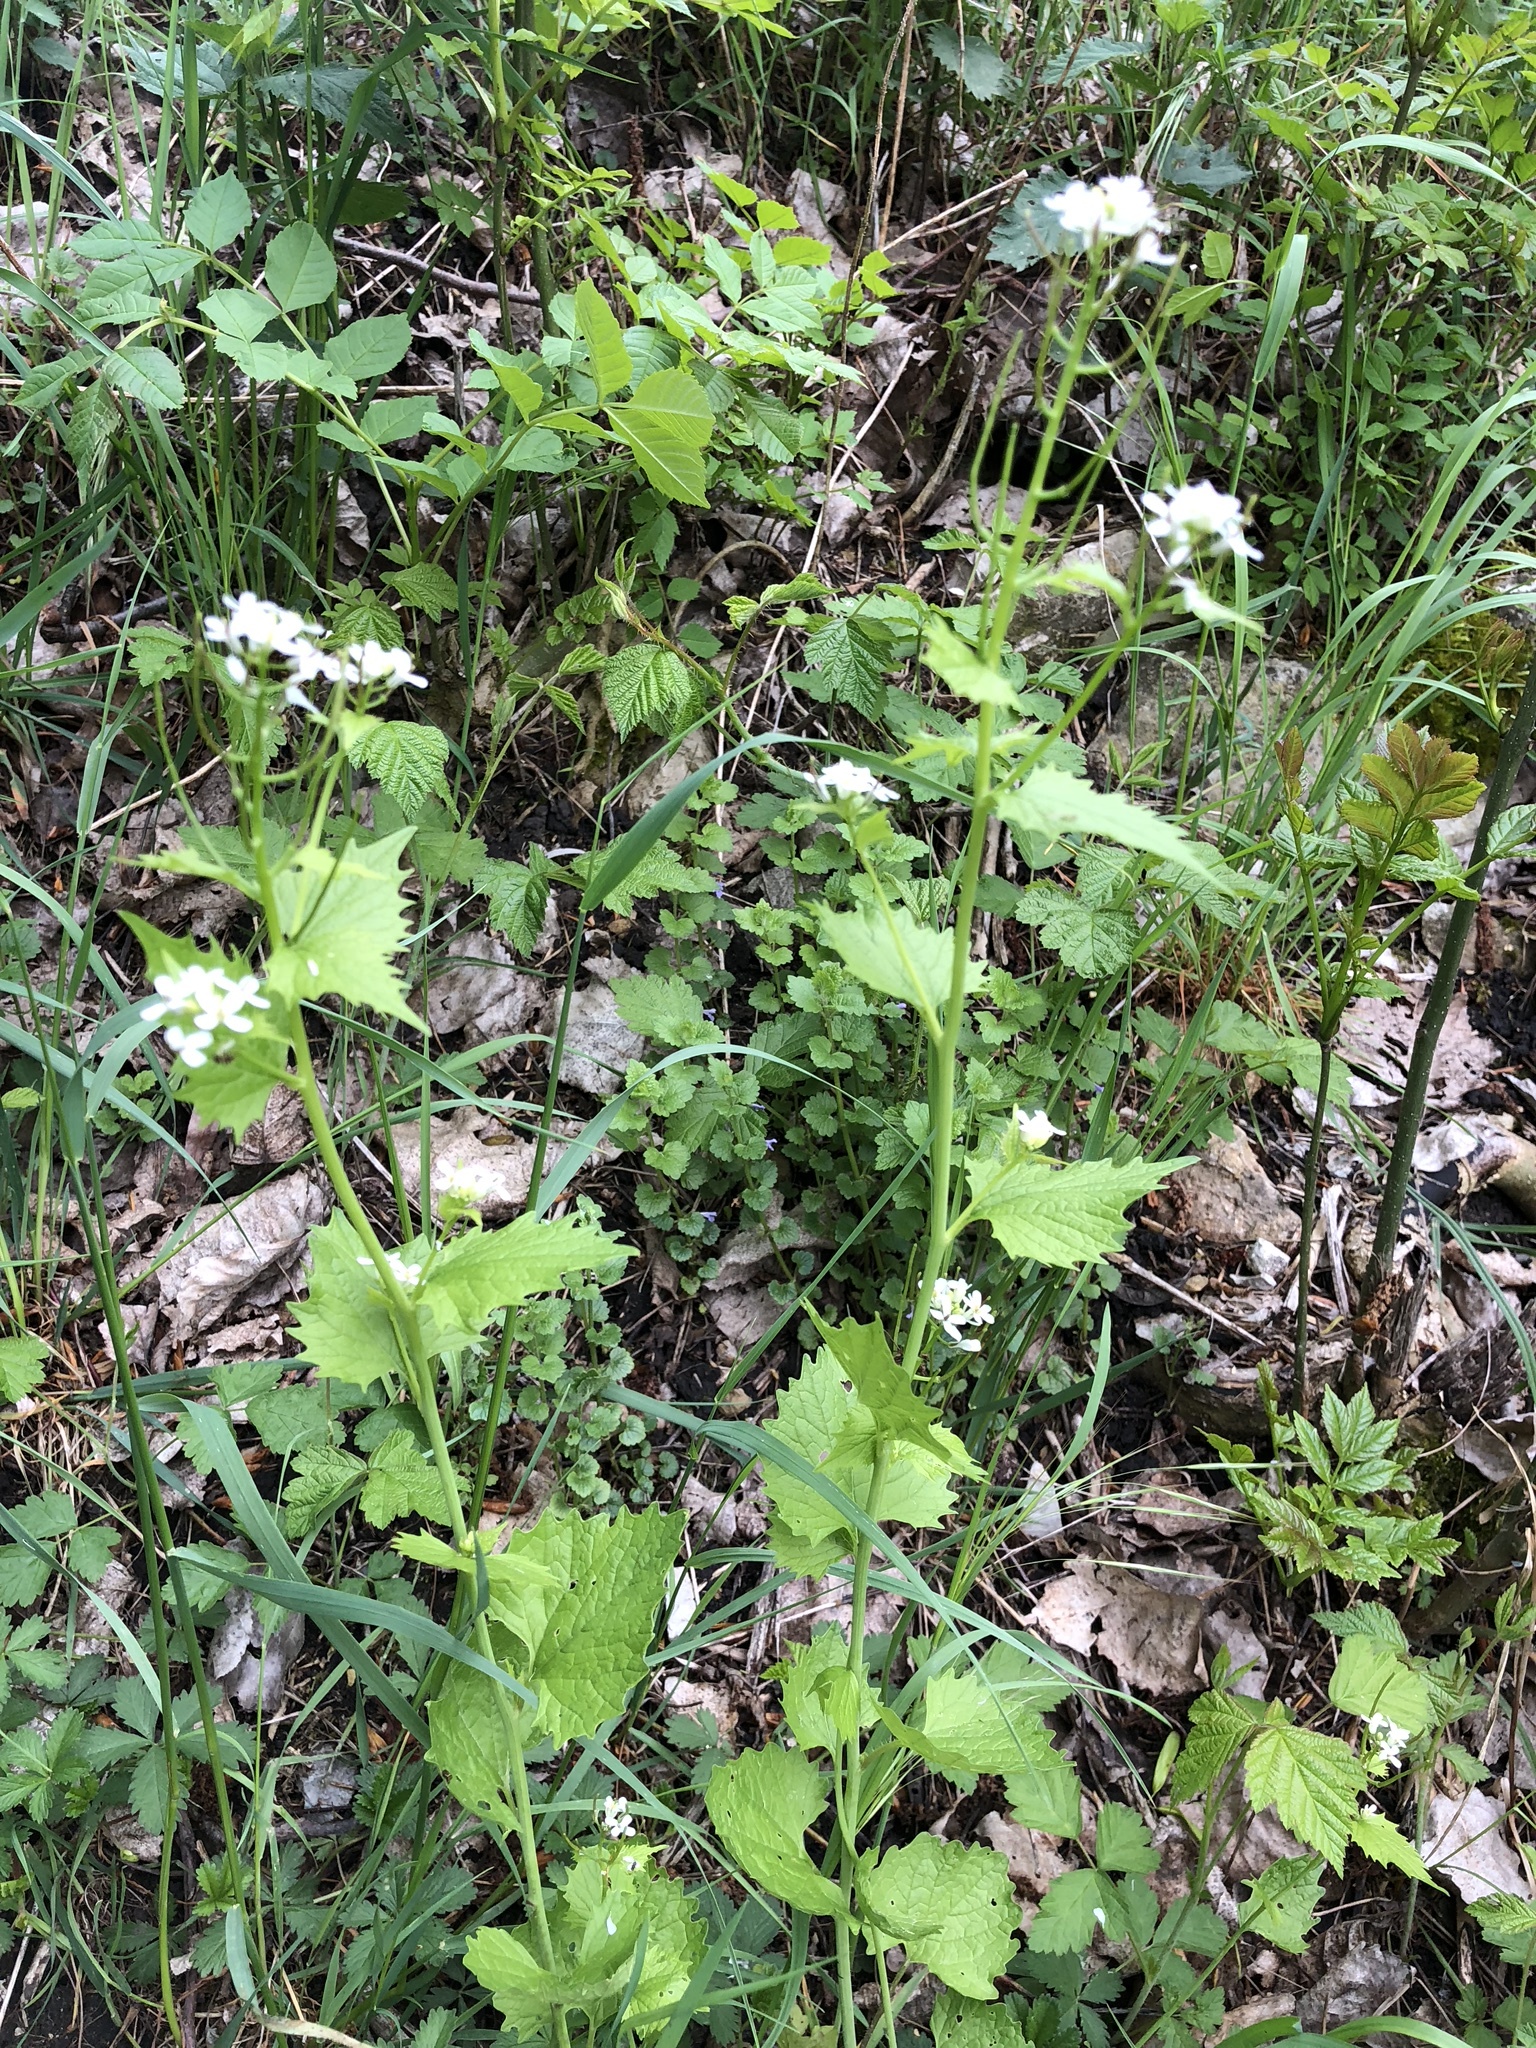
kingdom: Plantae
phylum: Tracheophyta
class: Magnoliopsida
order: Brassicales
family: Brassicaceae
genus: Alliaria
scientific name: Alliaria petiolata
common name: Garlic mustard
